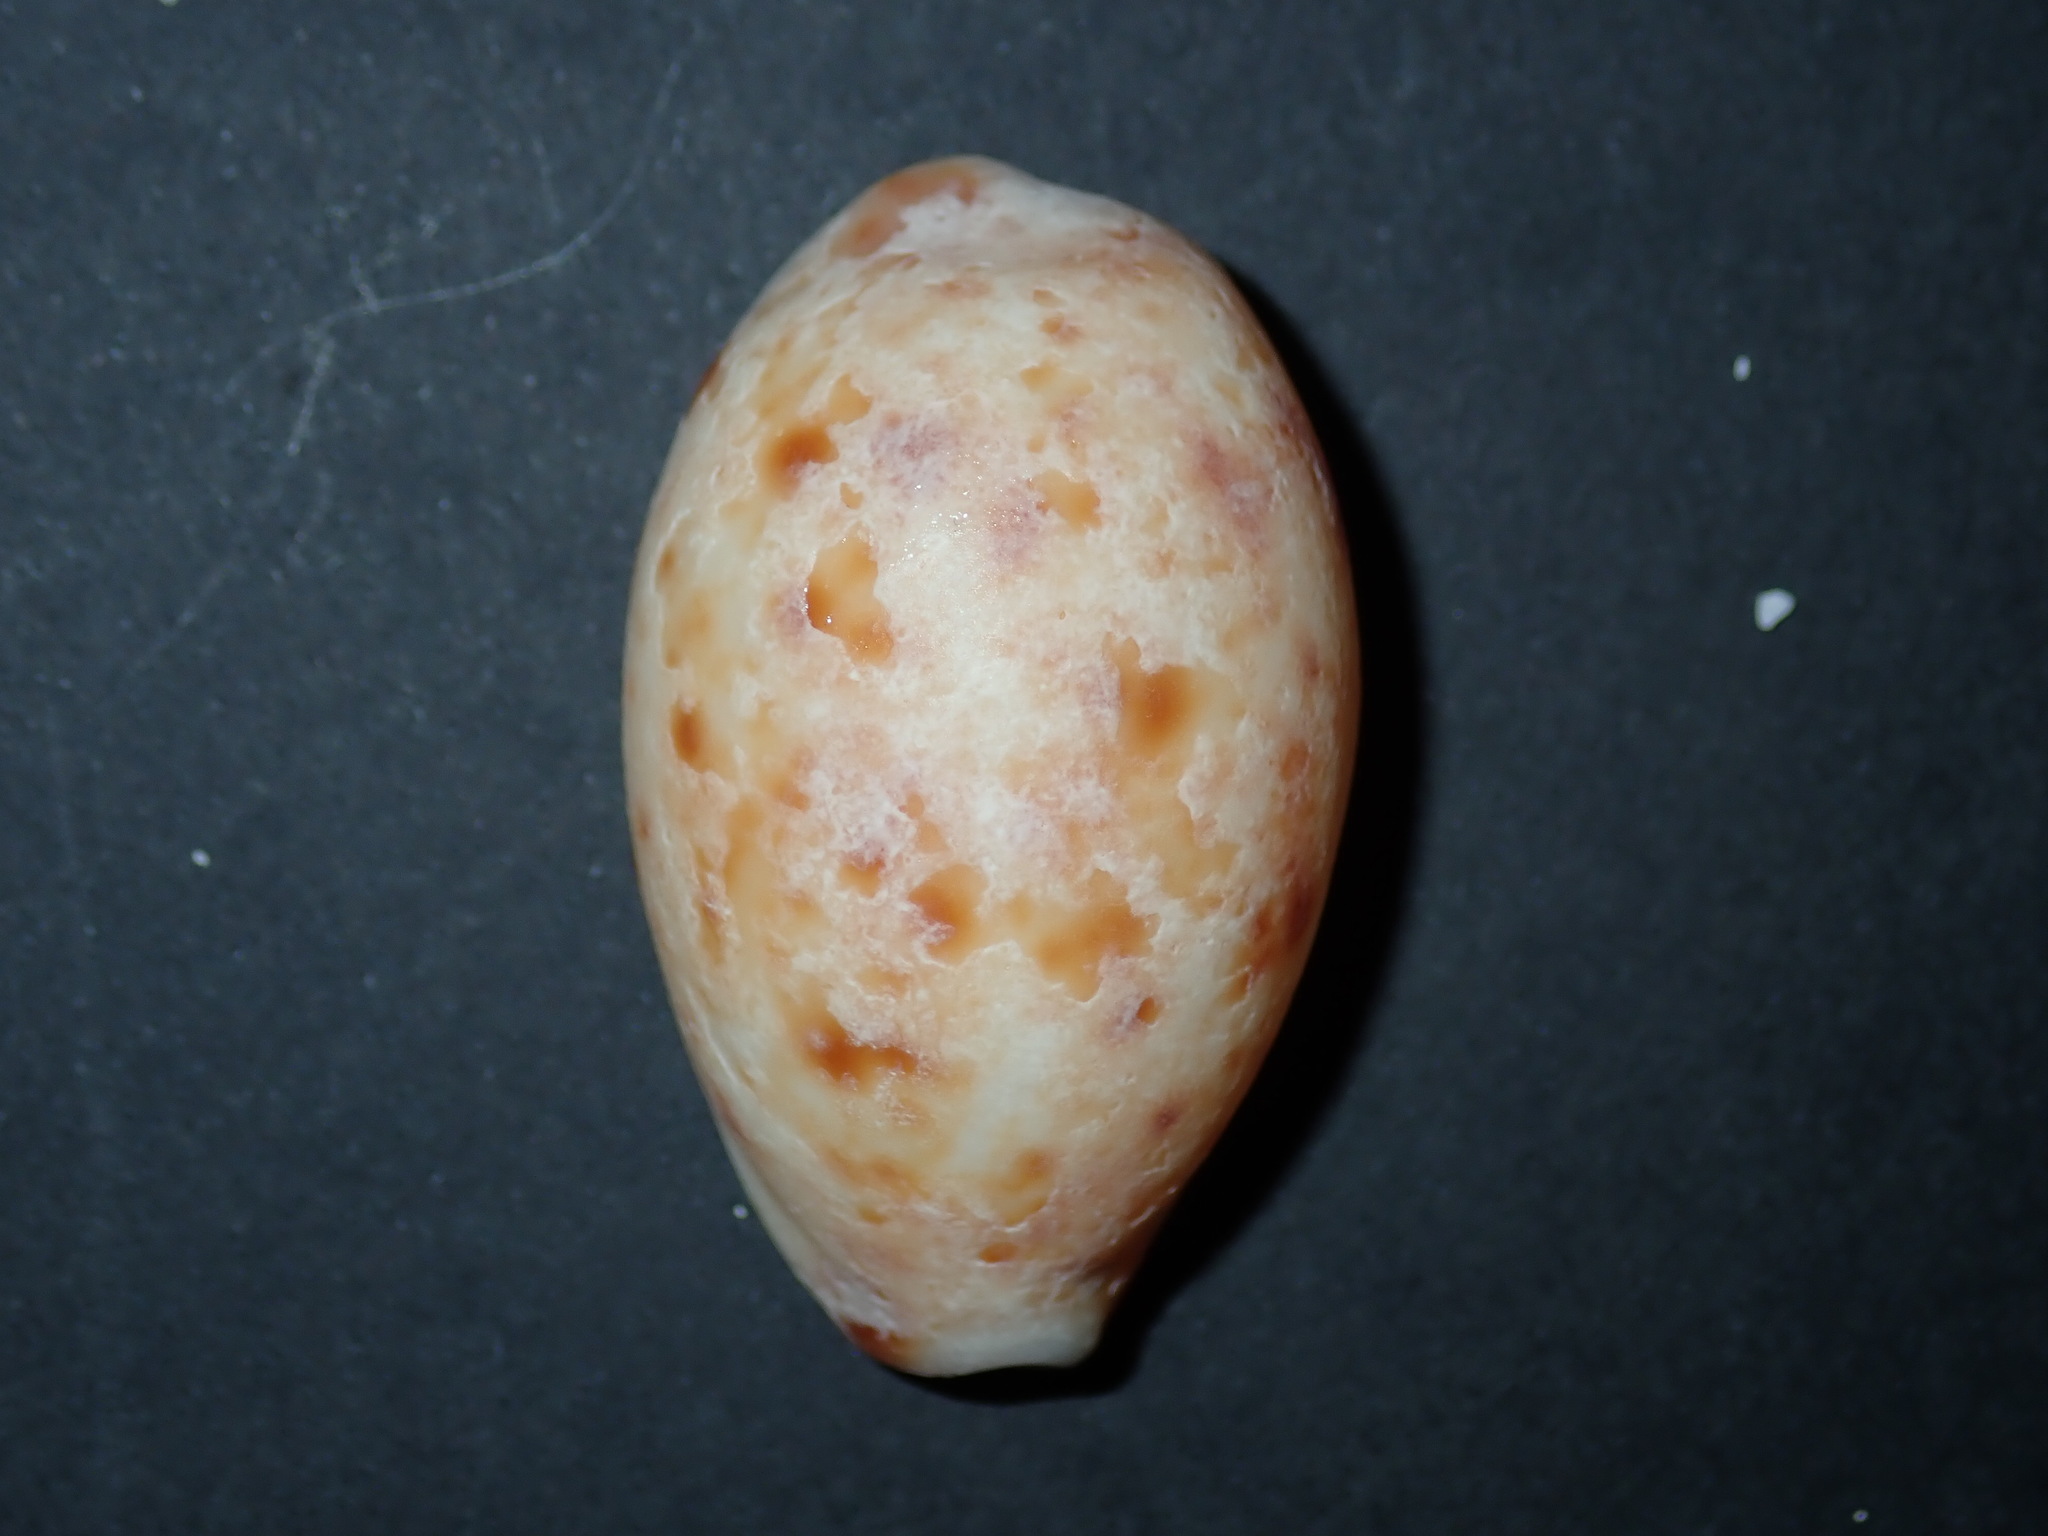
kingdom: Animalia
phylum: Mollusca
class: Gastropoda
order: Littorinimorpha
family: Cypraeidae
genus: Lyncina
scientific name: Lyncina lynx
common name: Bobcat cowrie
